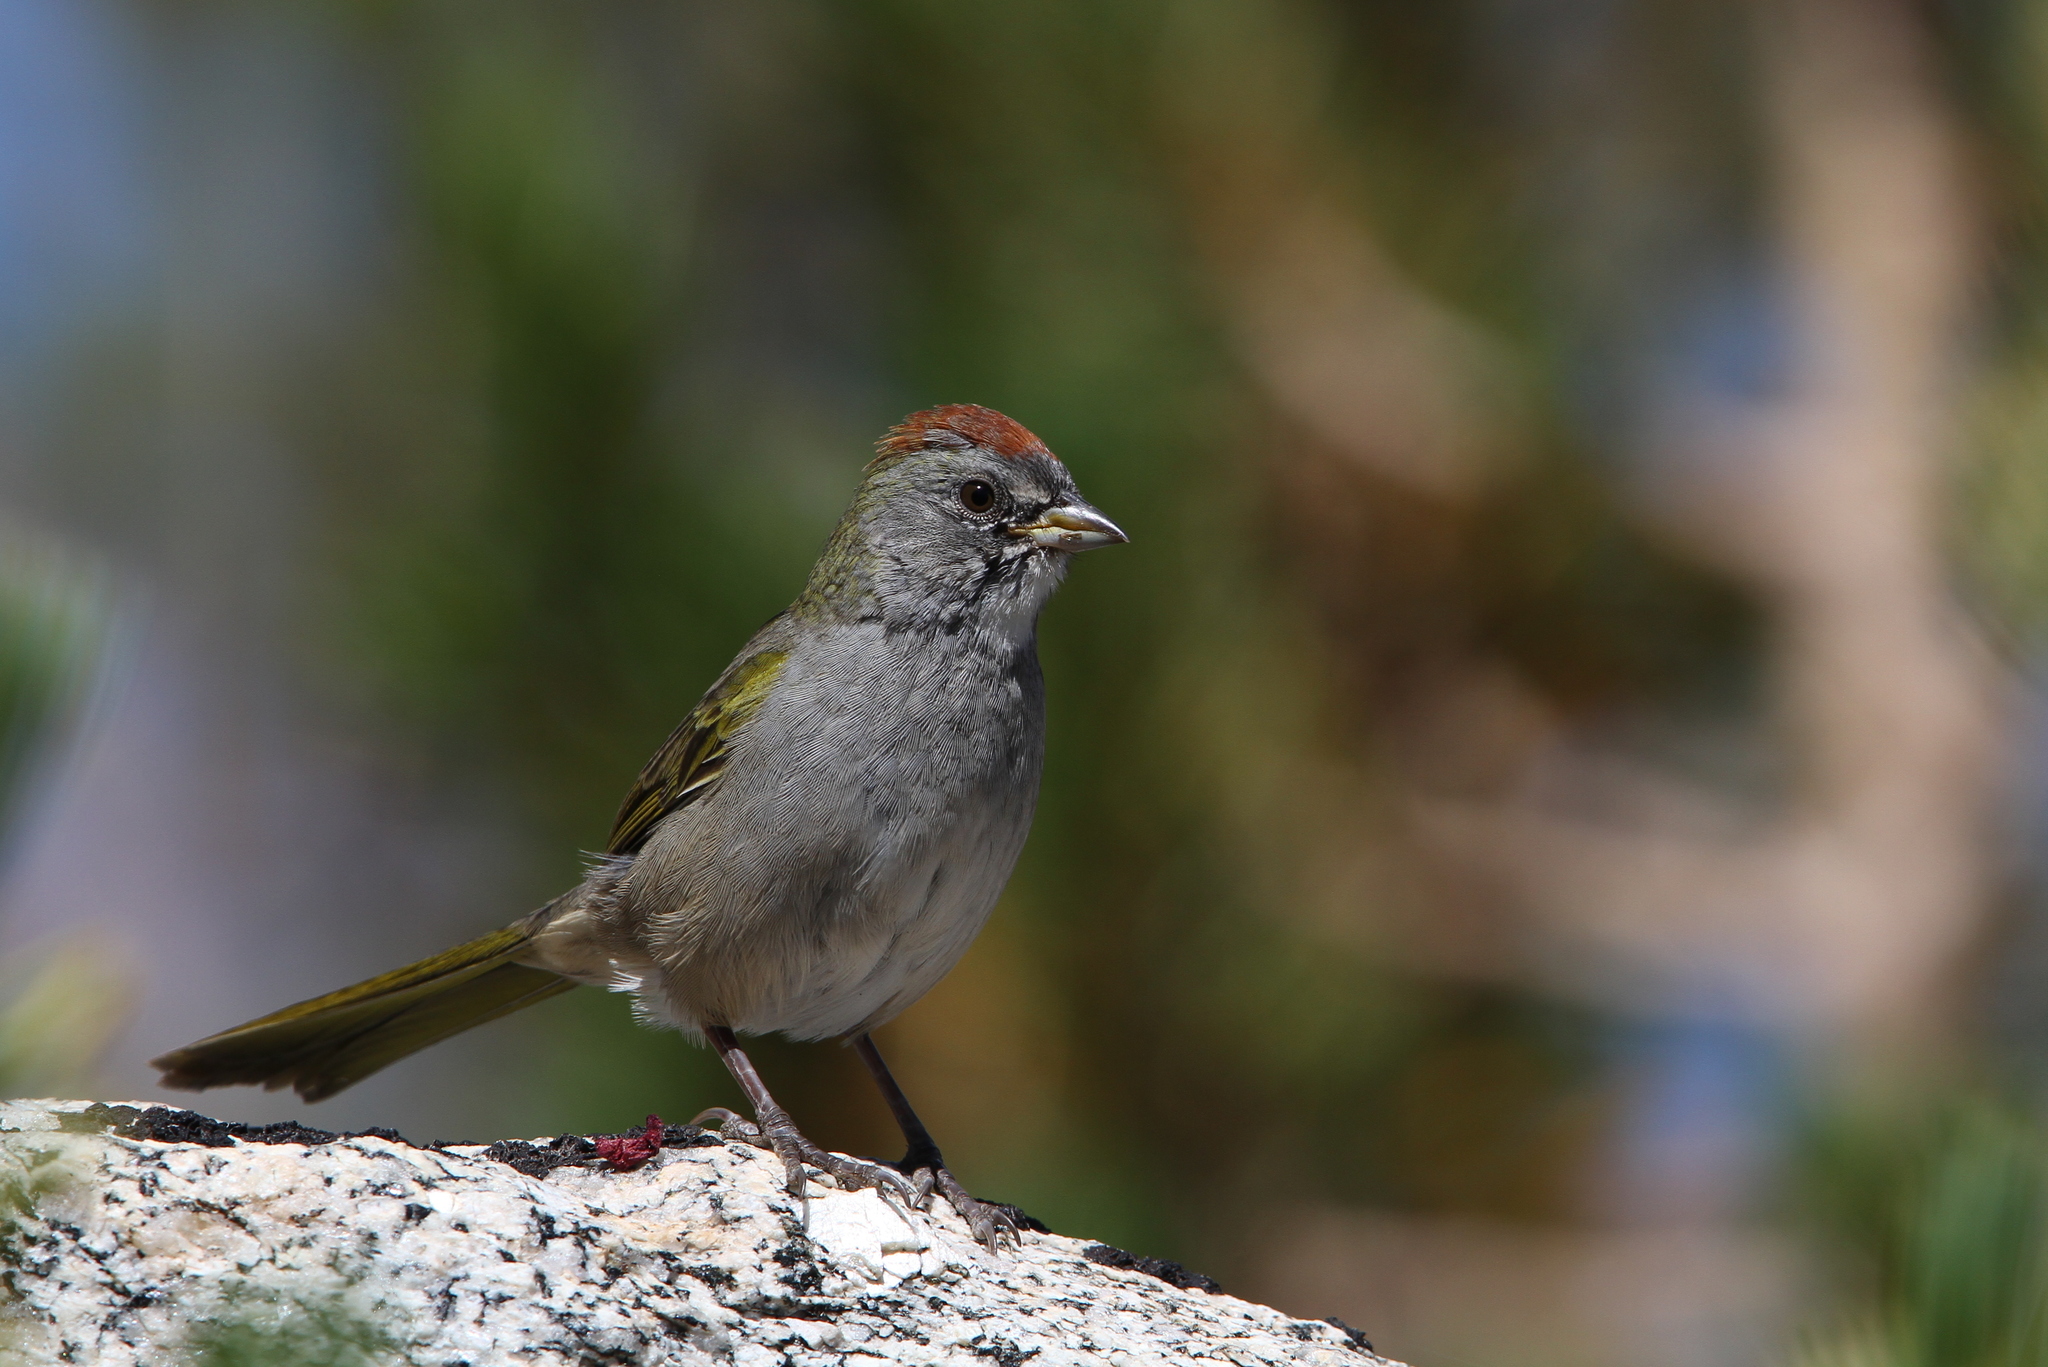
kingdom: Animalia
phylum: Chordata
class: Aves
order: Passeriformes
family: Passerellidae
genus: Pipilo
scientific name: Pipilo chlorurus
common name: Green-tailed towhee
